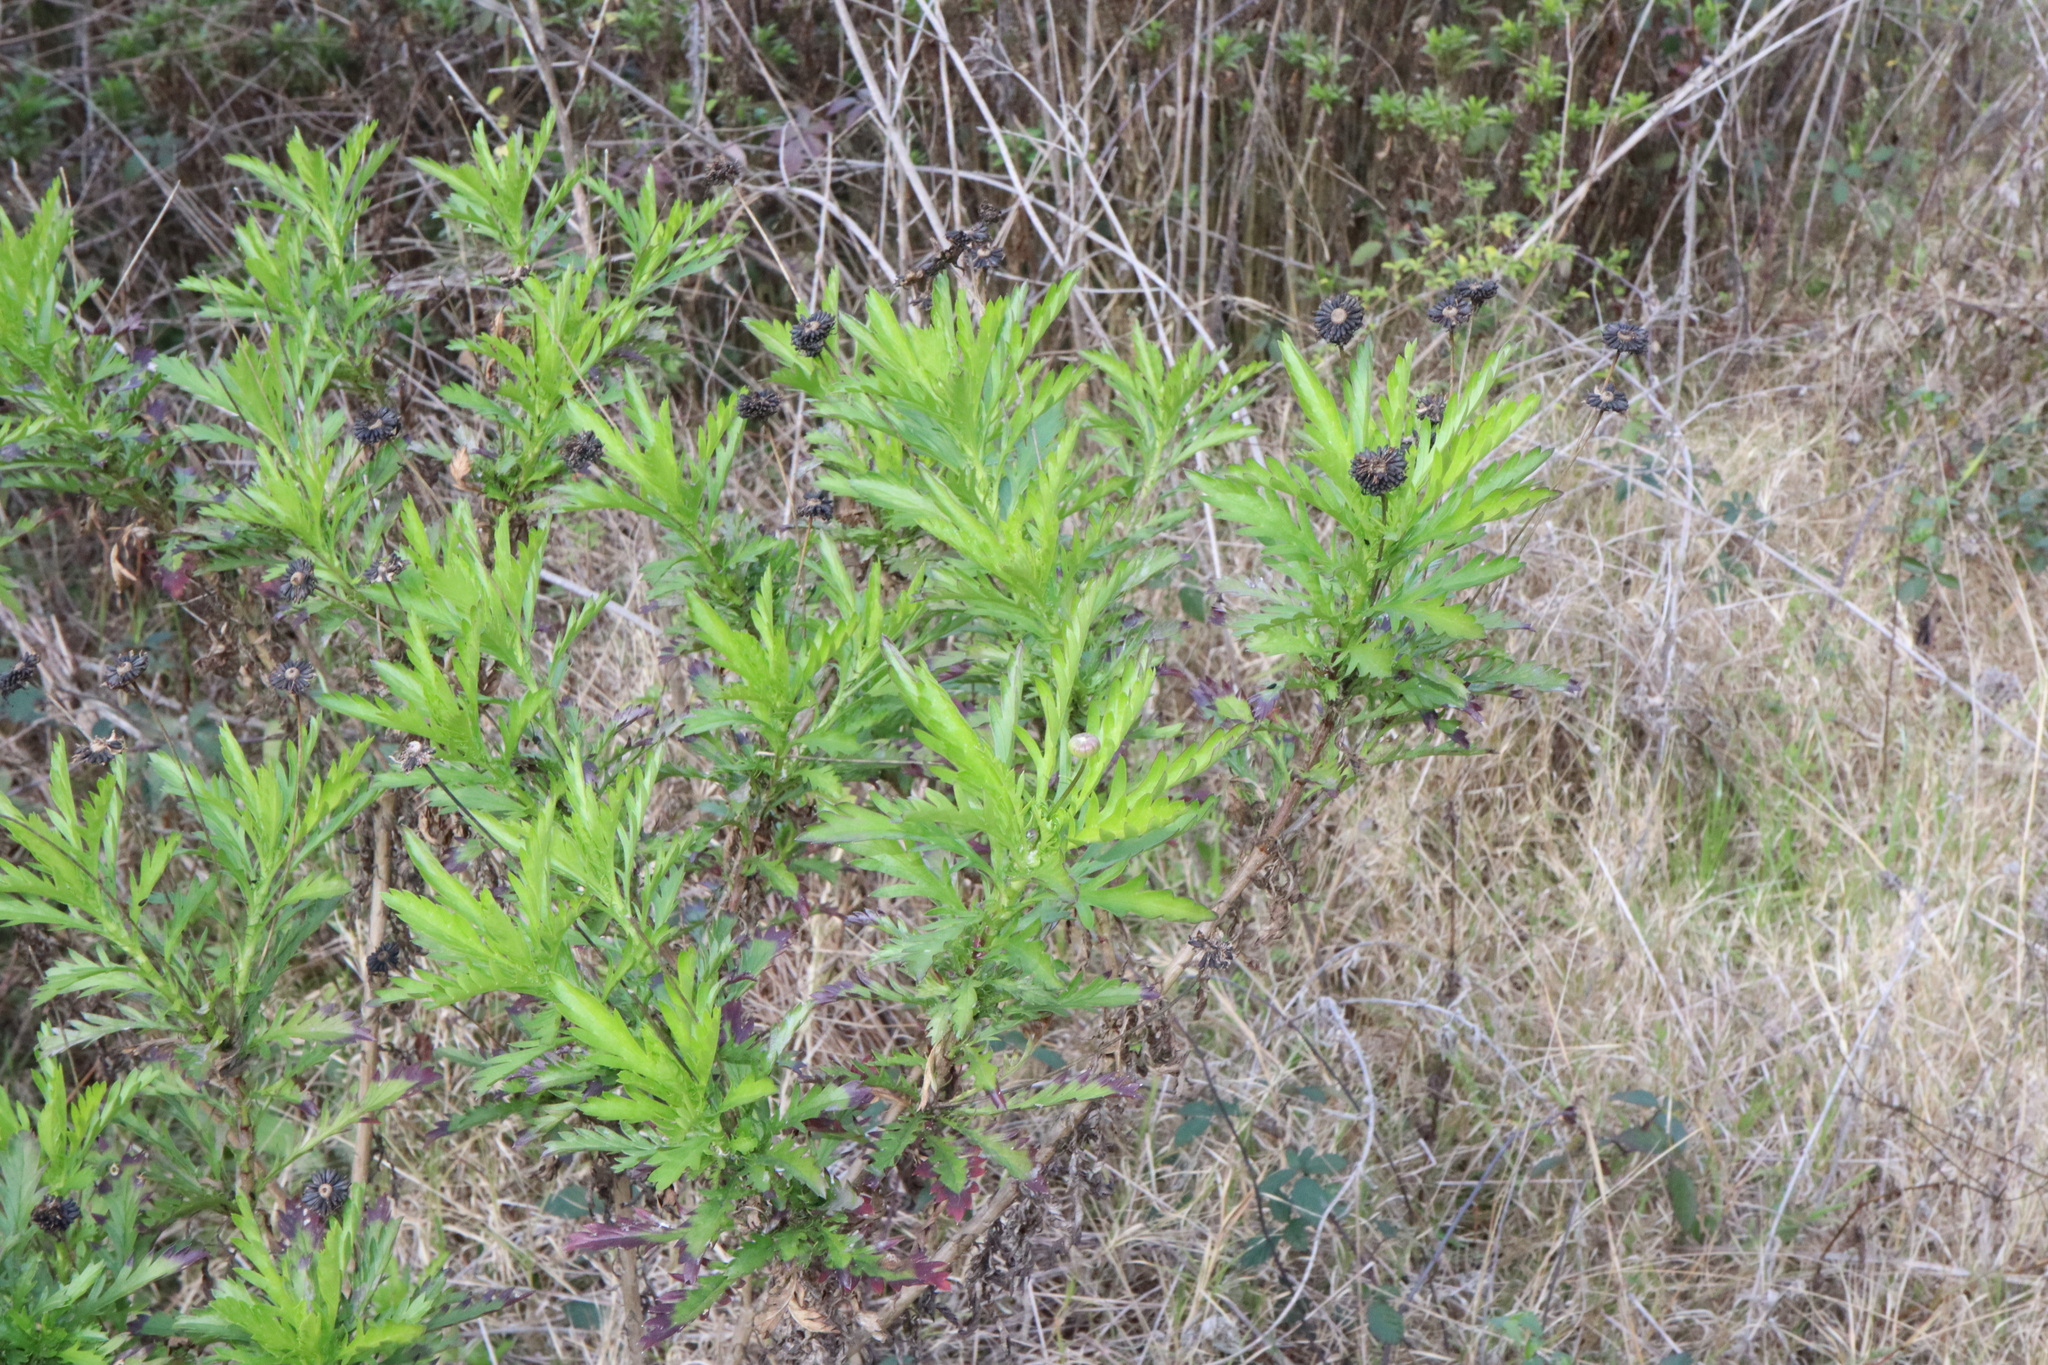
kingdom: Plantae
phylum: Tracheophyta
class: Magnoliopsida
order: Asterales
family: Asteraceae
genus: Euryops
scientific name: Euryops chrysanthemoides
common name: Bull's eye
